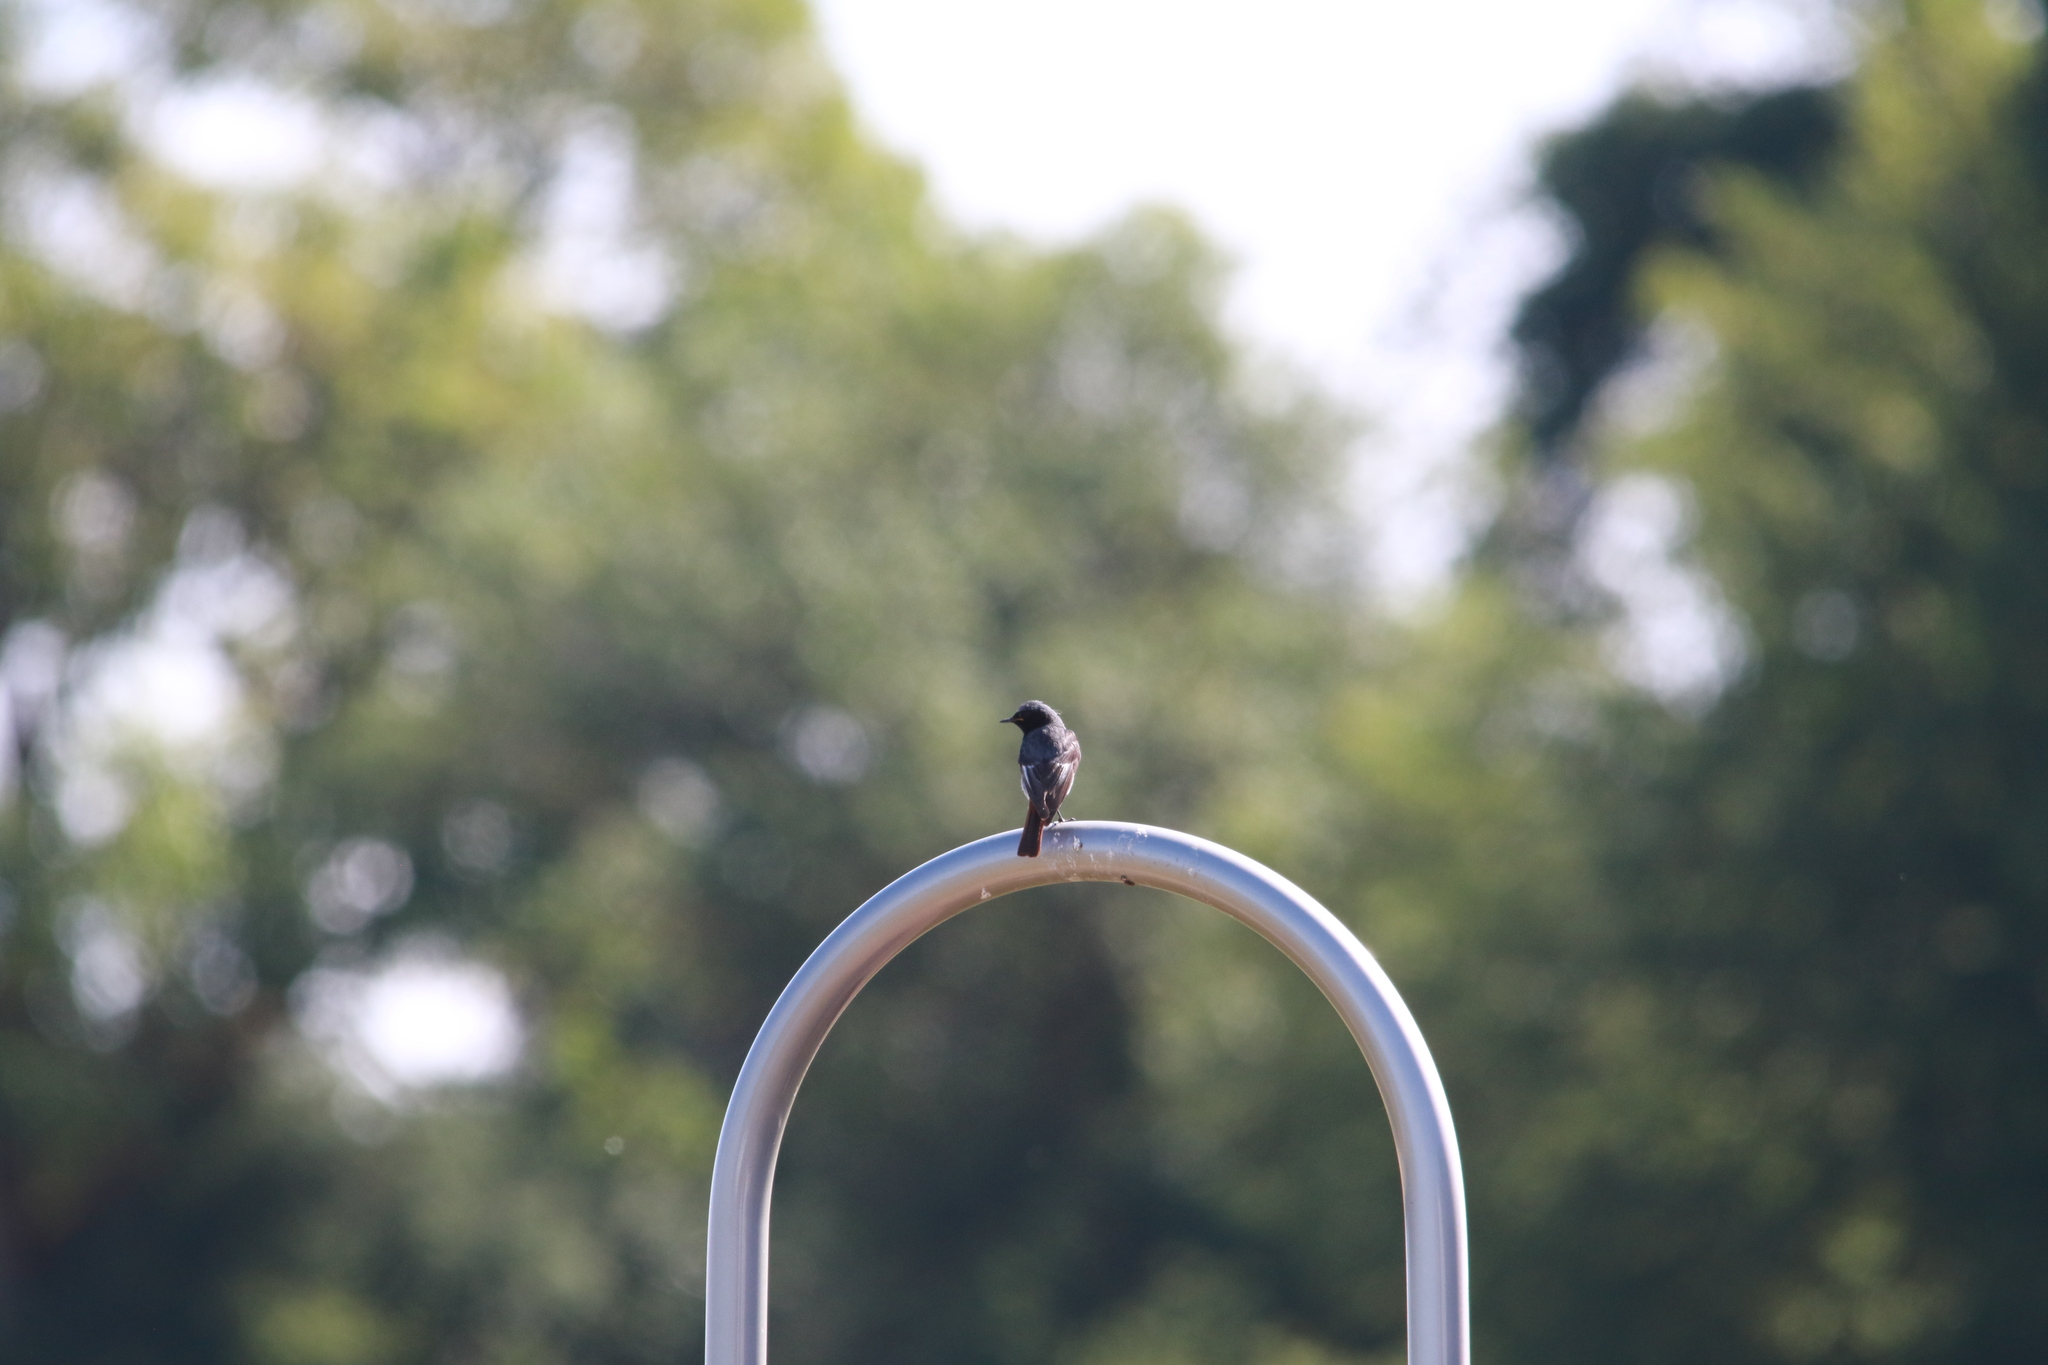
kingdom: Animalia
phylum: Chordata
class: Aves
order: Passeriformes
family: Muscicapidae
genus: Phoenicurus
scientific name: Phoenicurus ochruros
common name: Black redstart
